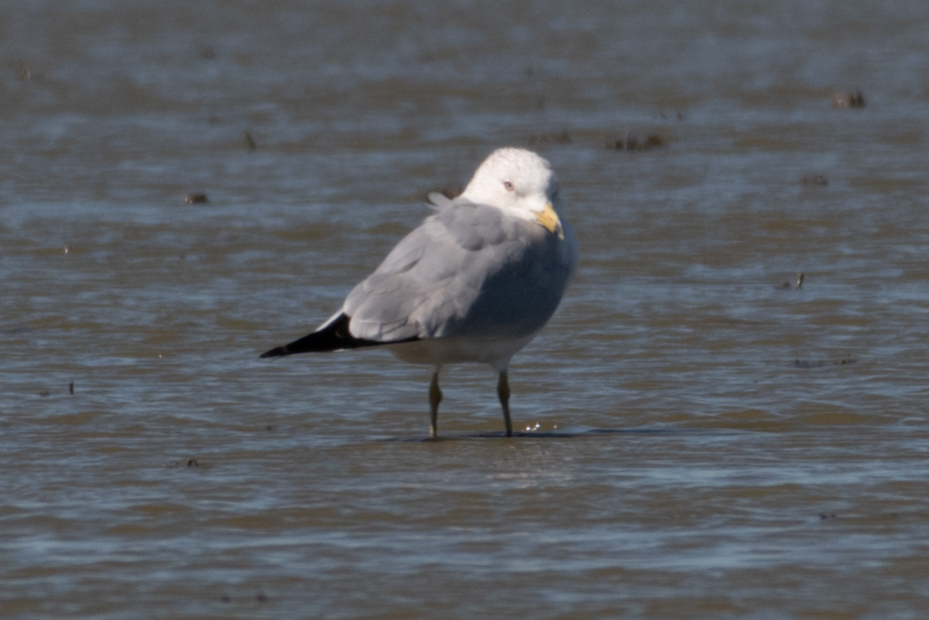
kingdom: Animalia
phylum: Chordata
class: Aves
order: Charadriiformes
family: Laridae
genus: Larus
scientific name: Larus delawarensis
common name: Ring-billed gull
